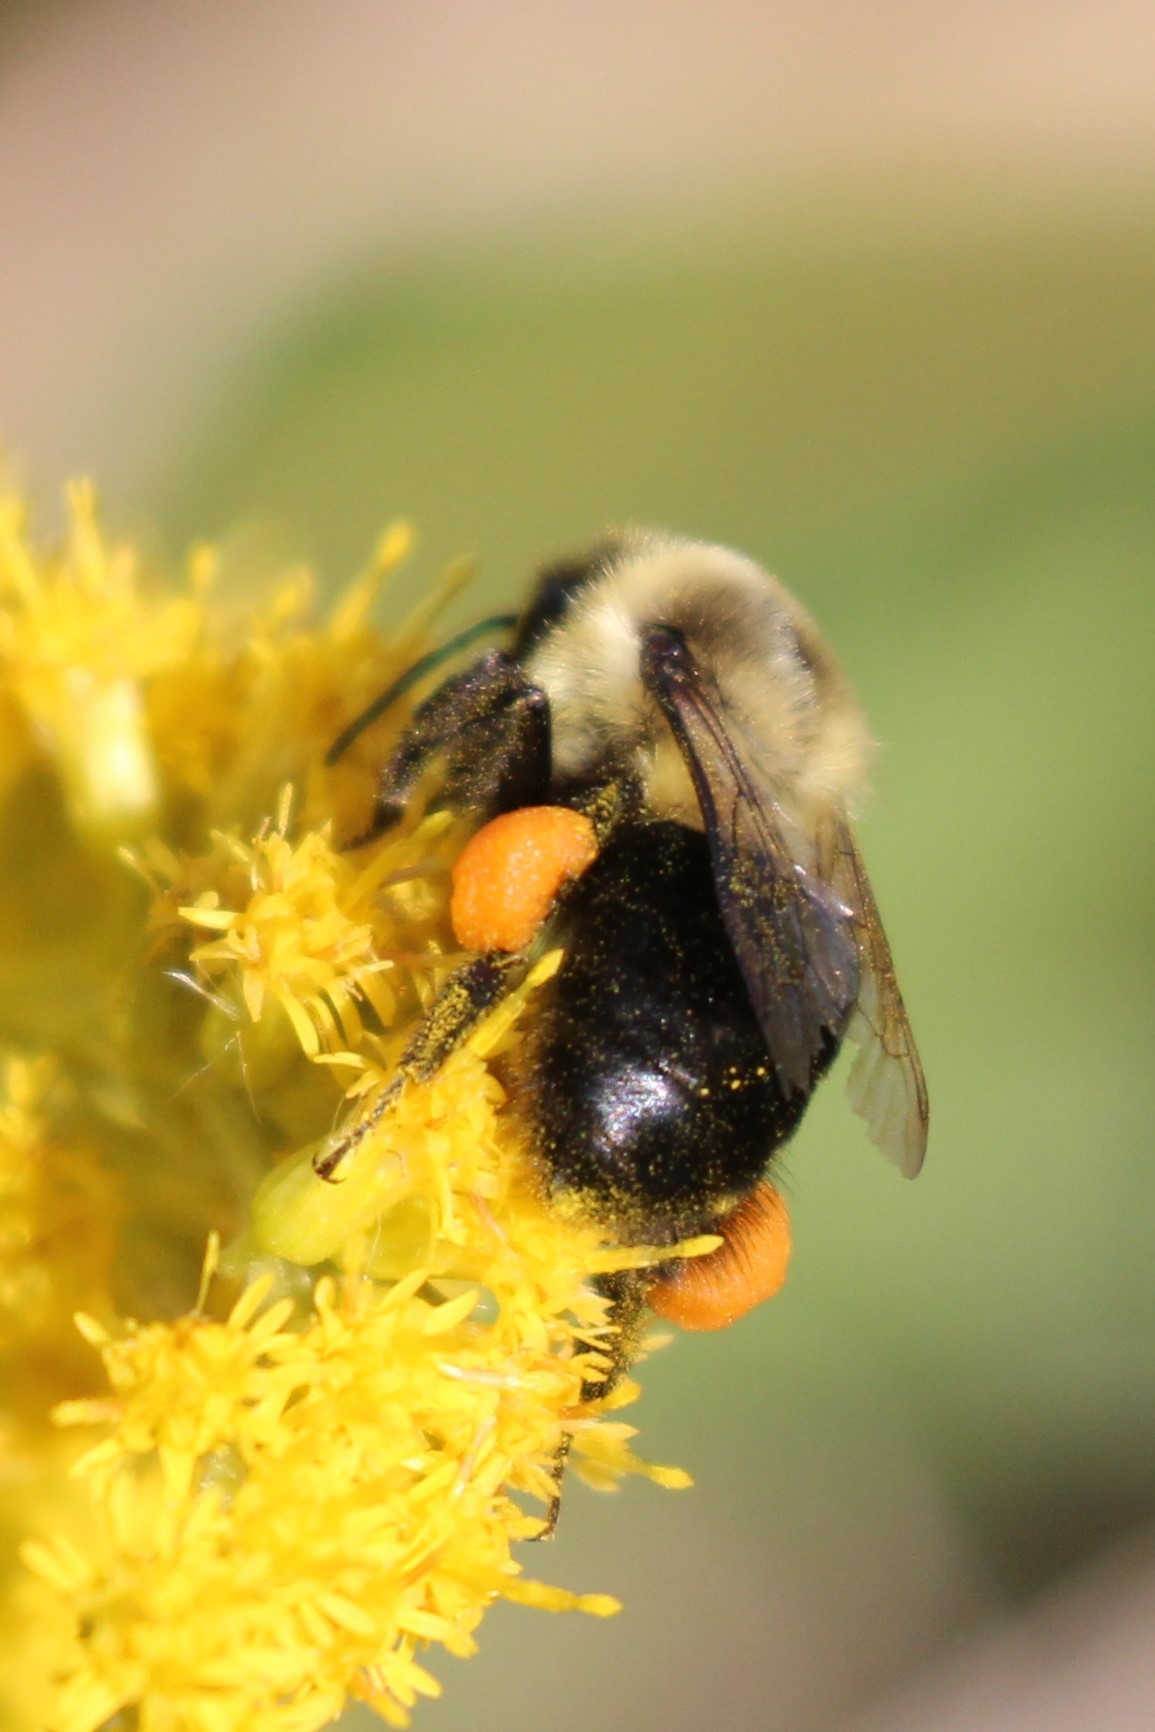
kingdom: Animalia
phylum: Arthropoda
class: Insecta
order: Hymenoptera
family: Apidae
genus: Bombus
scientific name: Bombus impatiens
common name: Common eastern bumble bee
